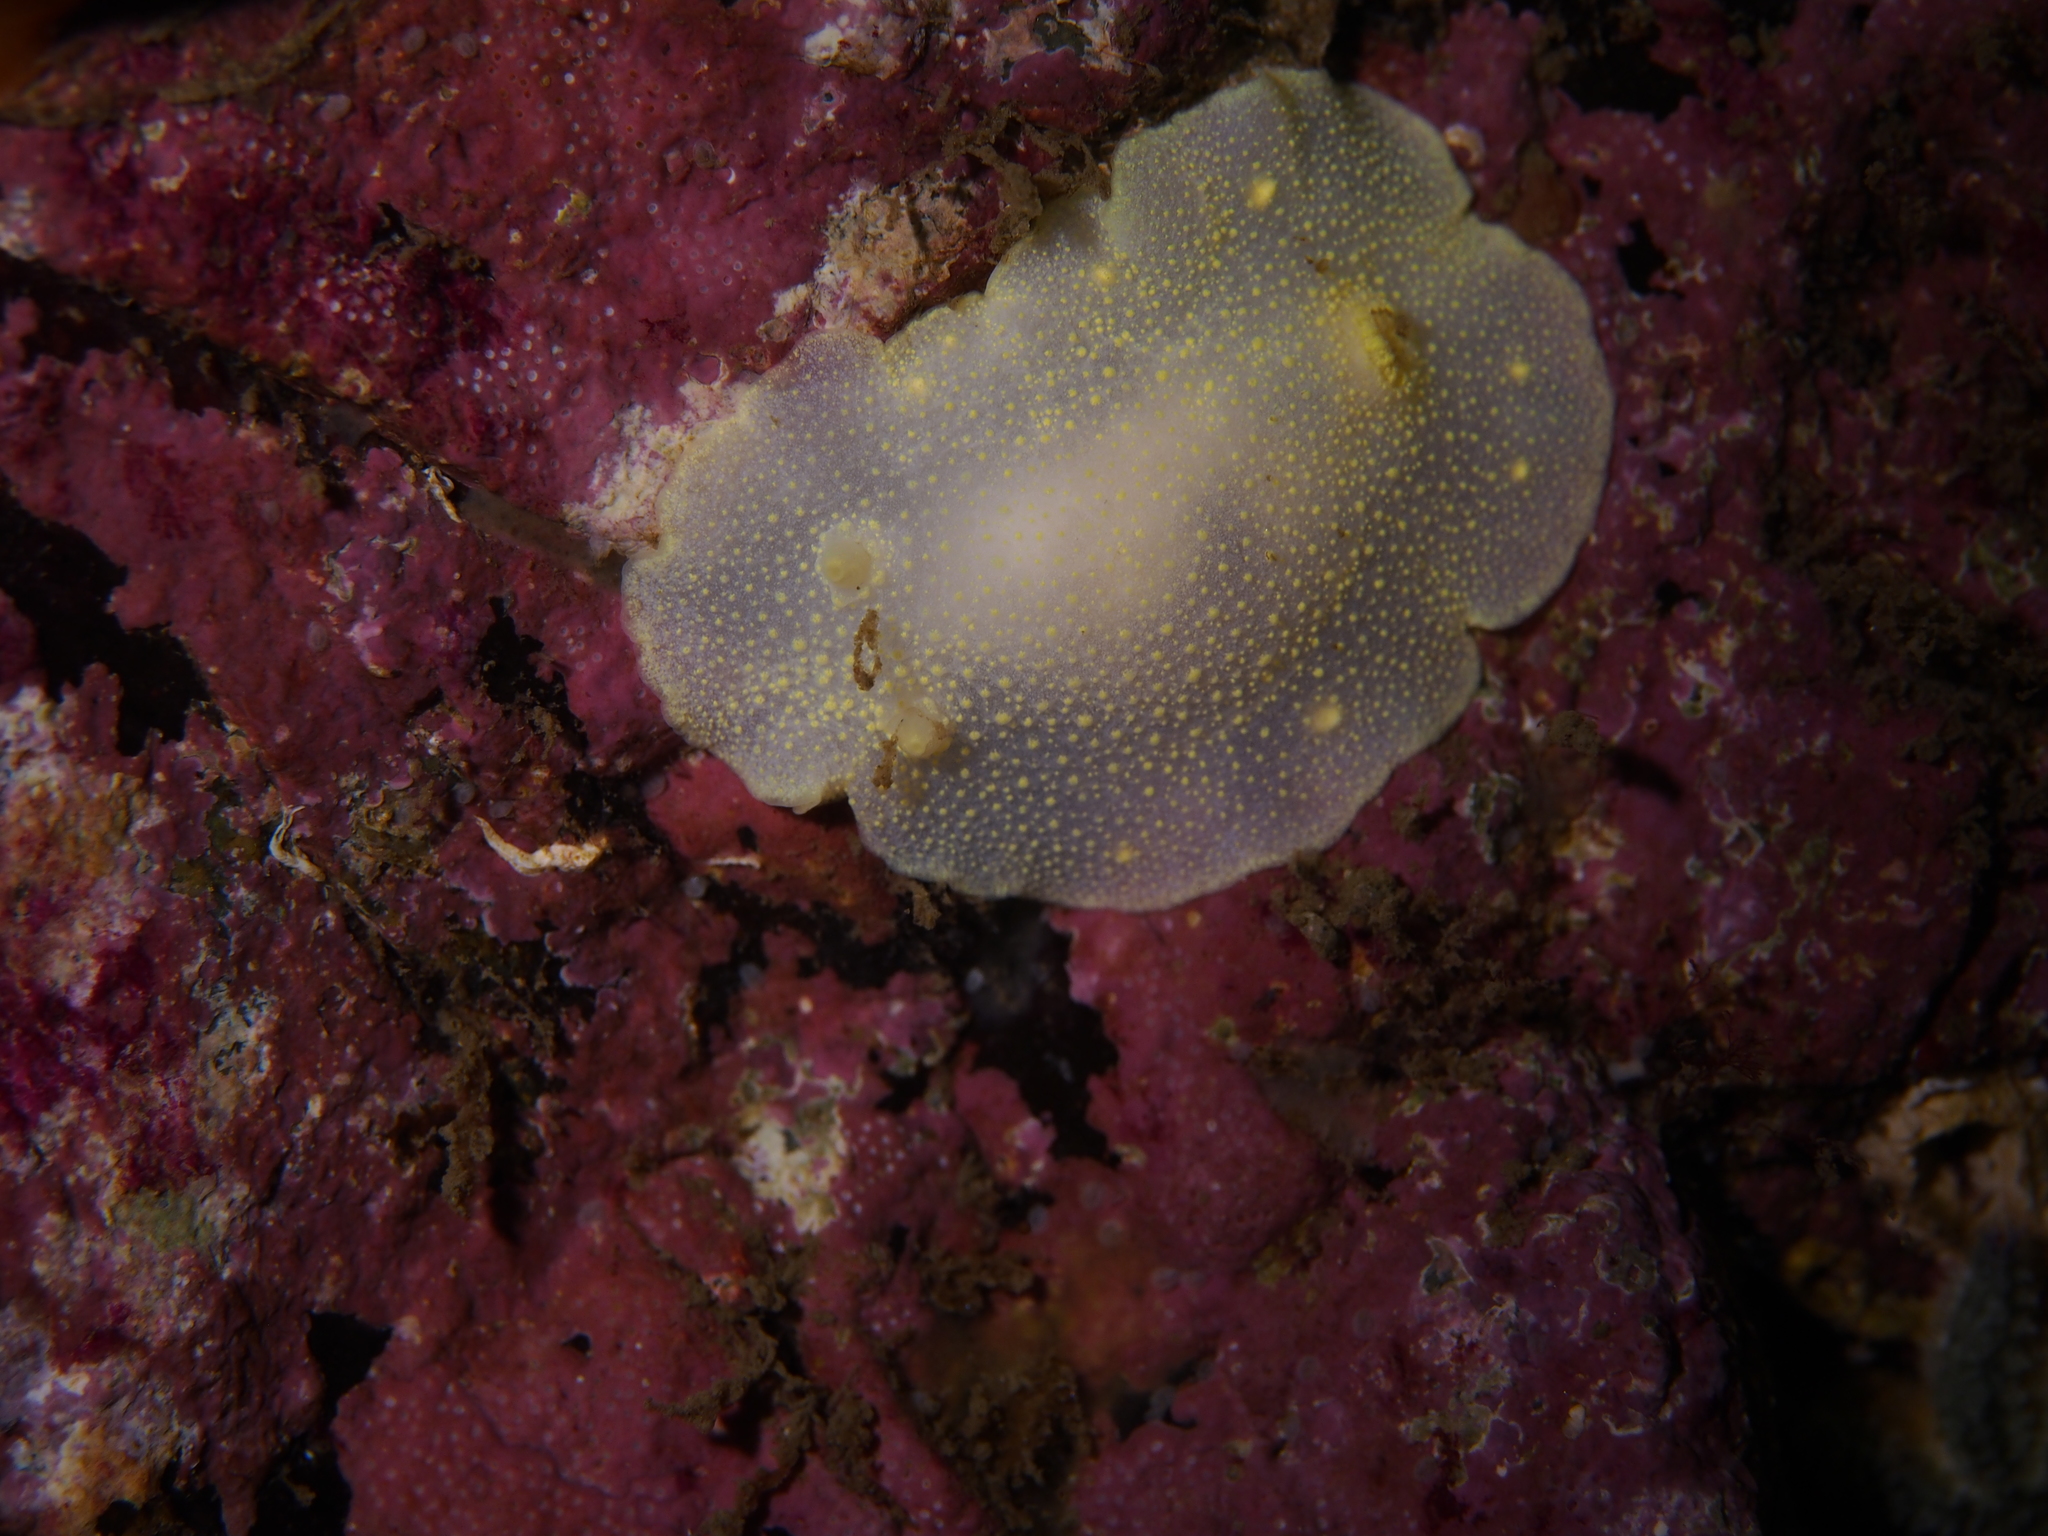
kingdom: Animalia
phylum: Mollusca
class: Gastropoda
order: Nudibranchia
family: Cadlinidae
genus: Cadlina
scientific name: Cadlina laevis
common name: White atlantic cadlina
